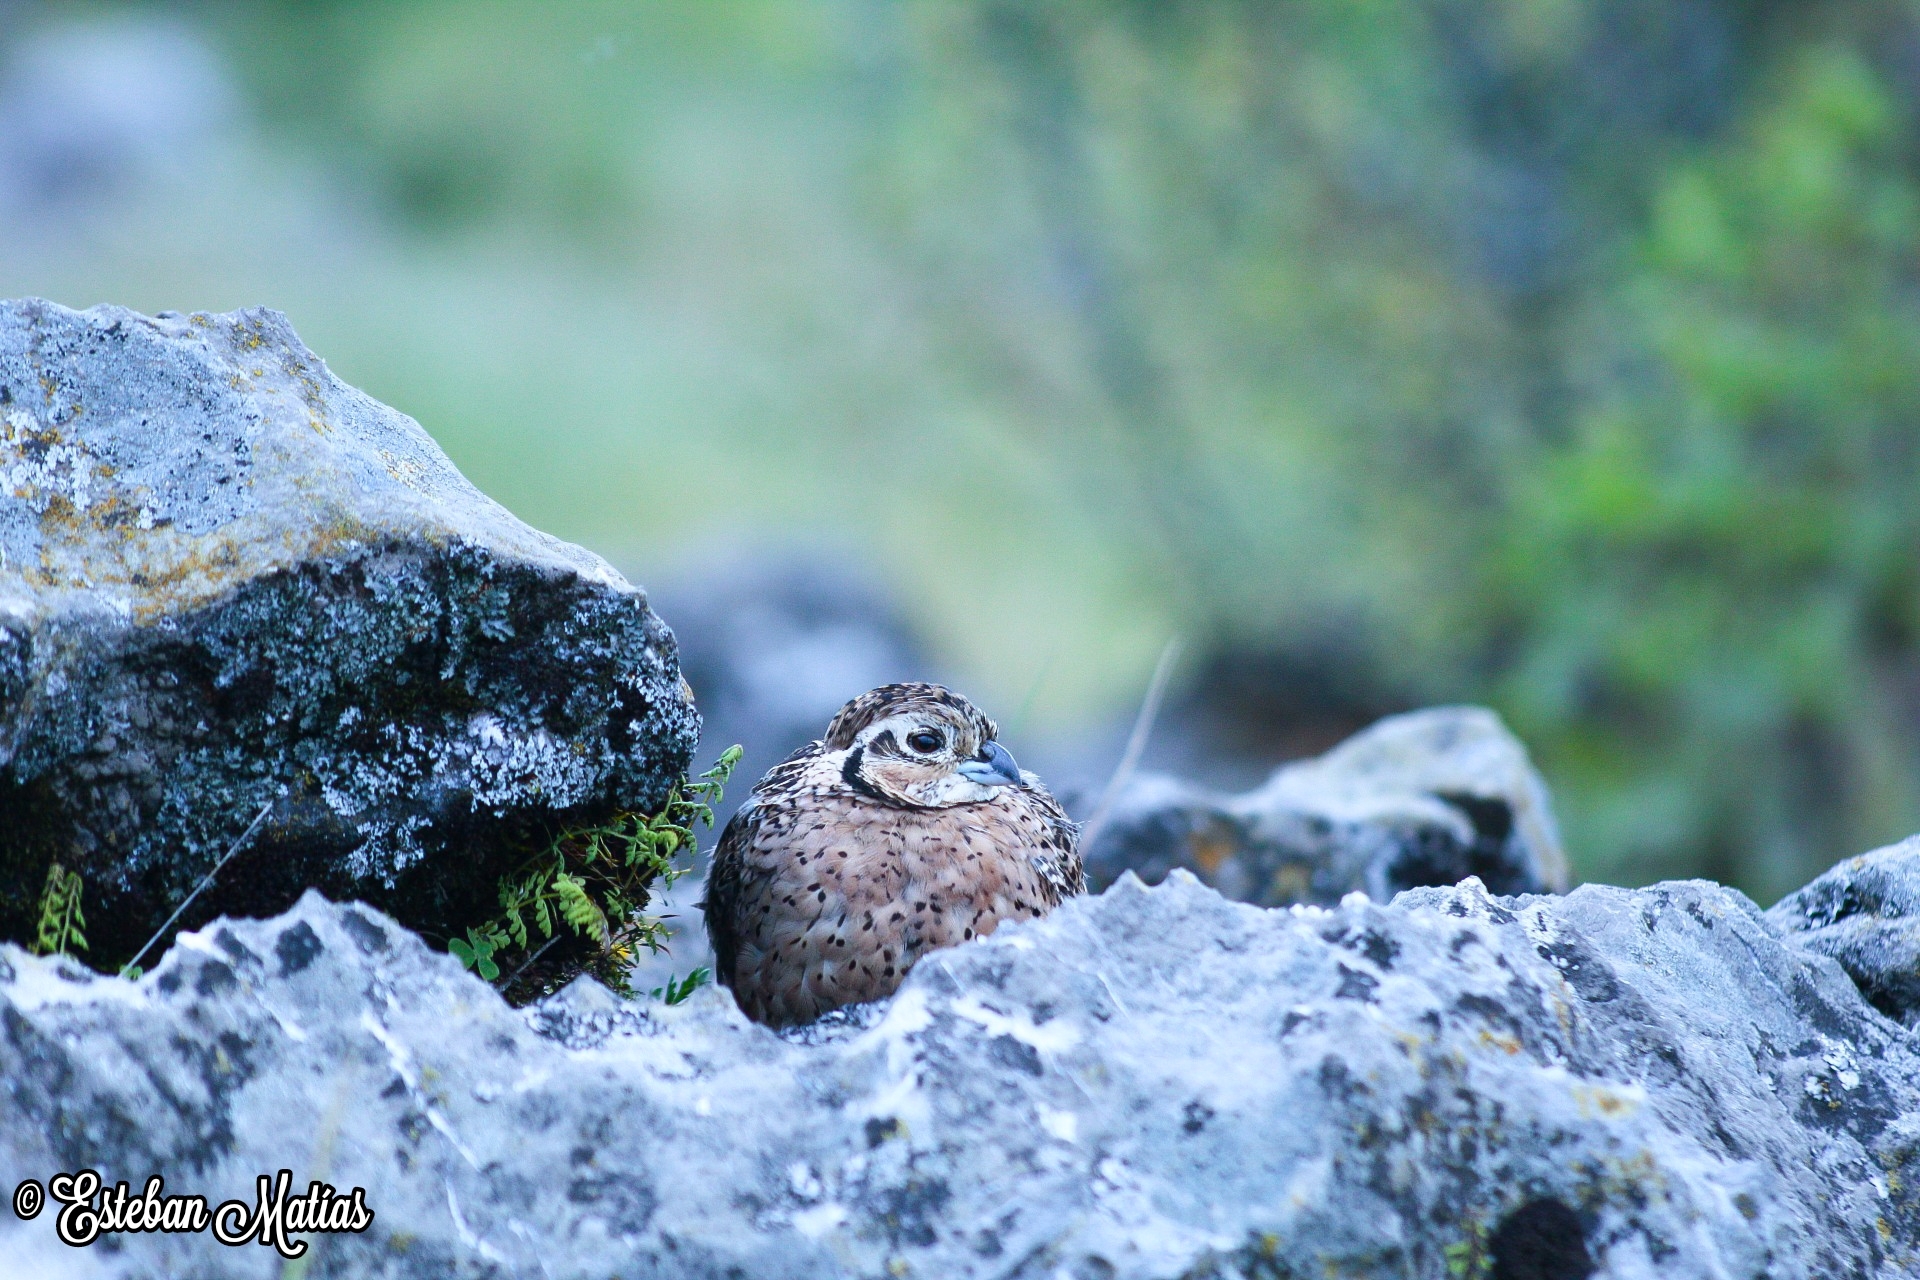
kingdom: Animalia
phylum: Chordata
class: Aves
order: Galliformes
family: Odontophoridae
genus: Cyrtonyx
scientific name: Cyrtonyx ocellatus
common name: Ocellated quail
